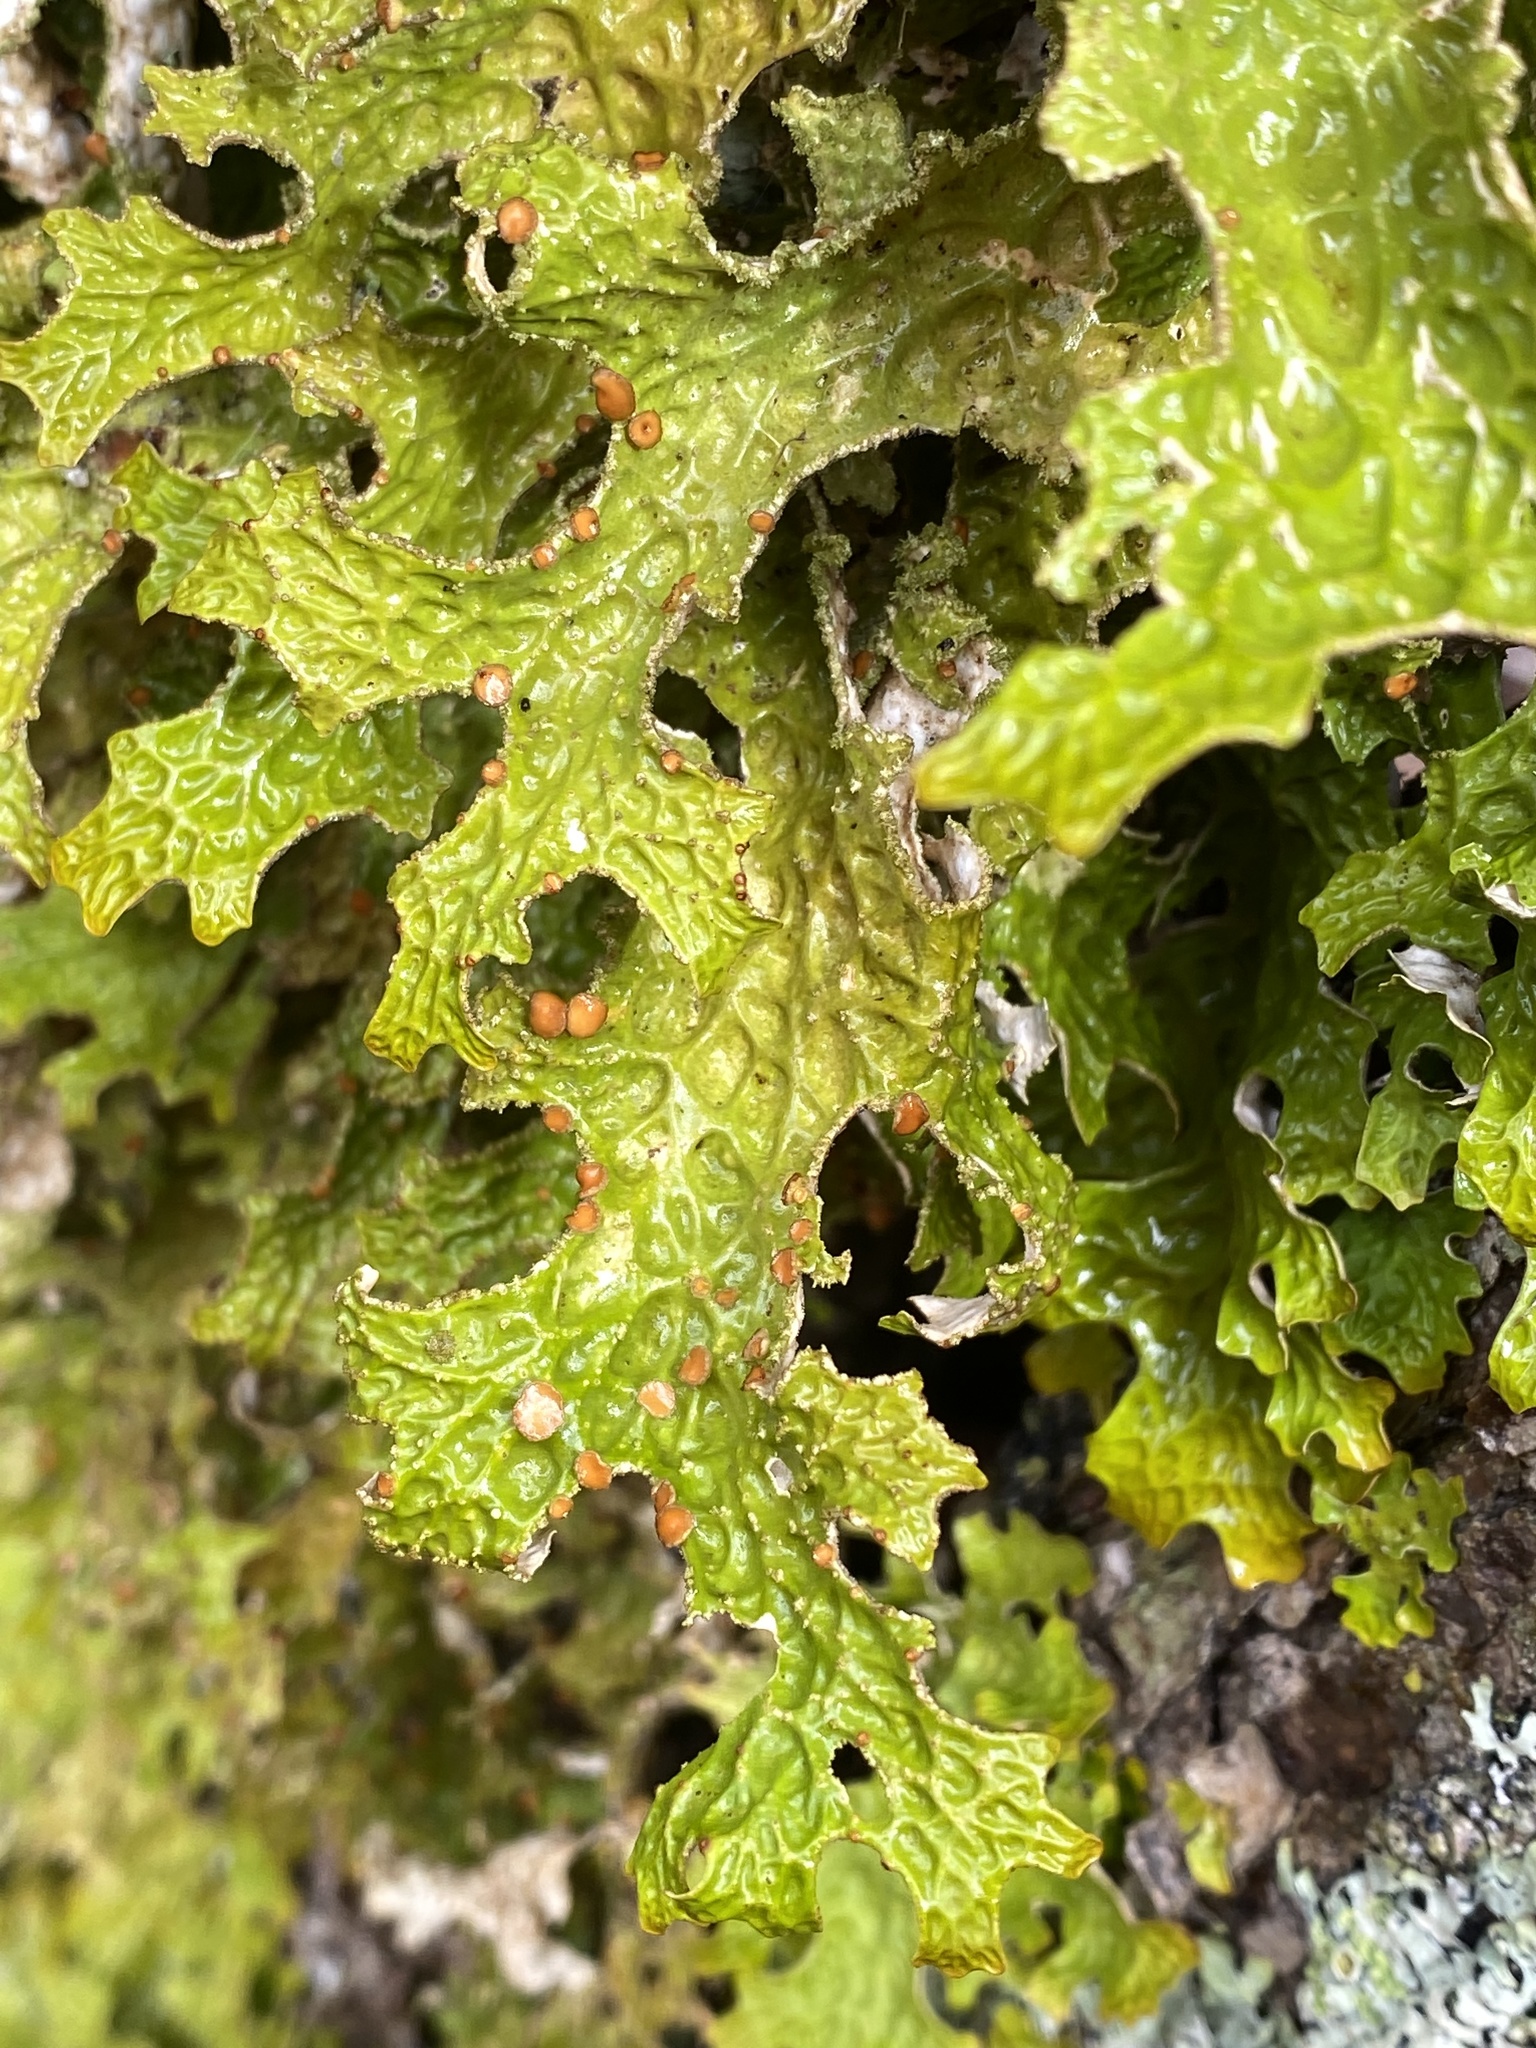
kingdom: Fungi
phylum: Ascomycota
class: Lecanoromycetes
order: Peltigerales
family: Lobariaceae
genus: Lobaria
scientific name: Lobaria pulmonaria
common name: Lungwort
